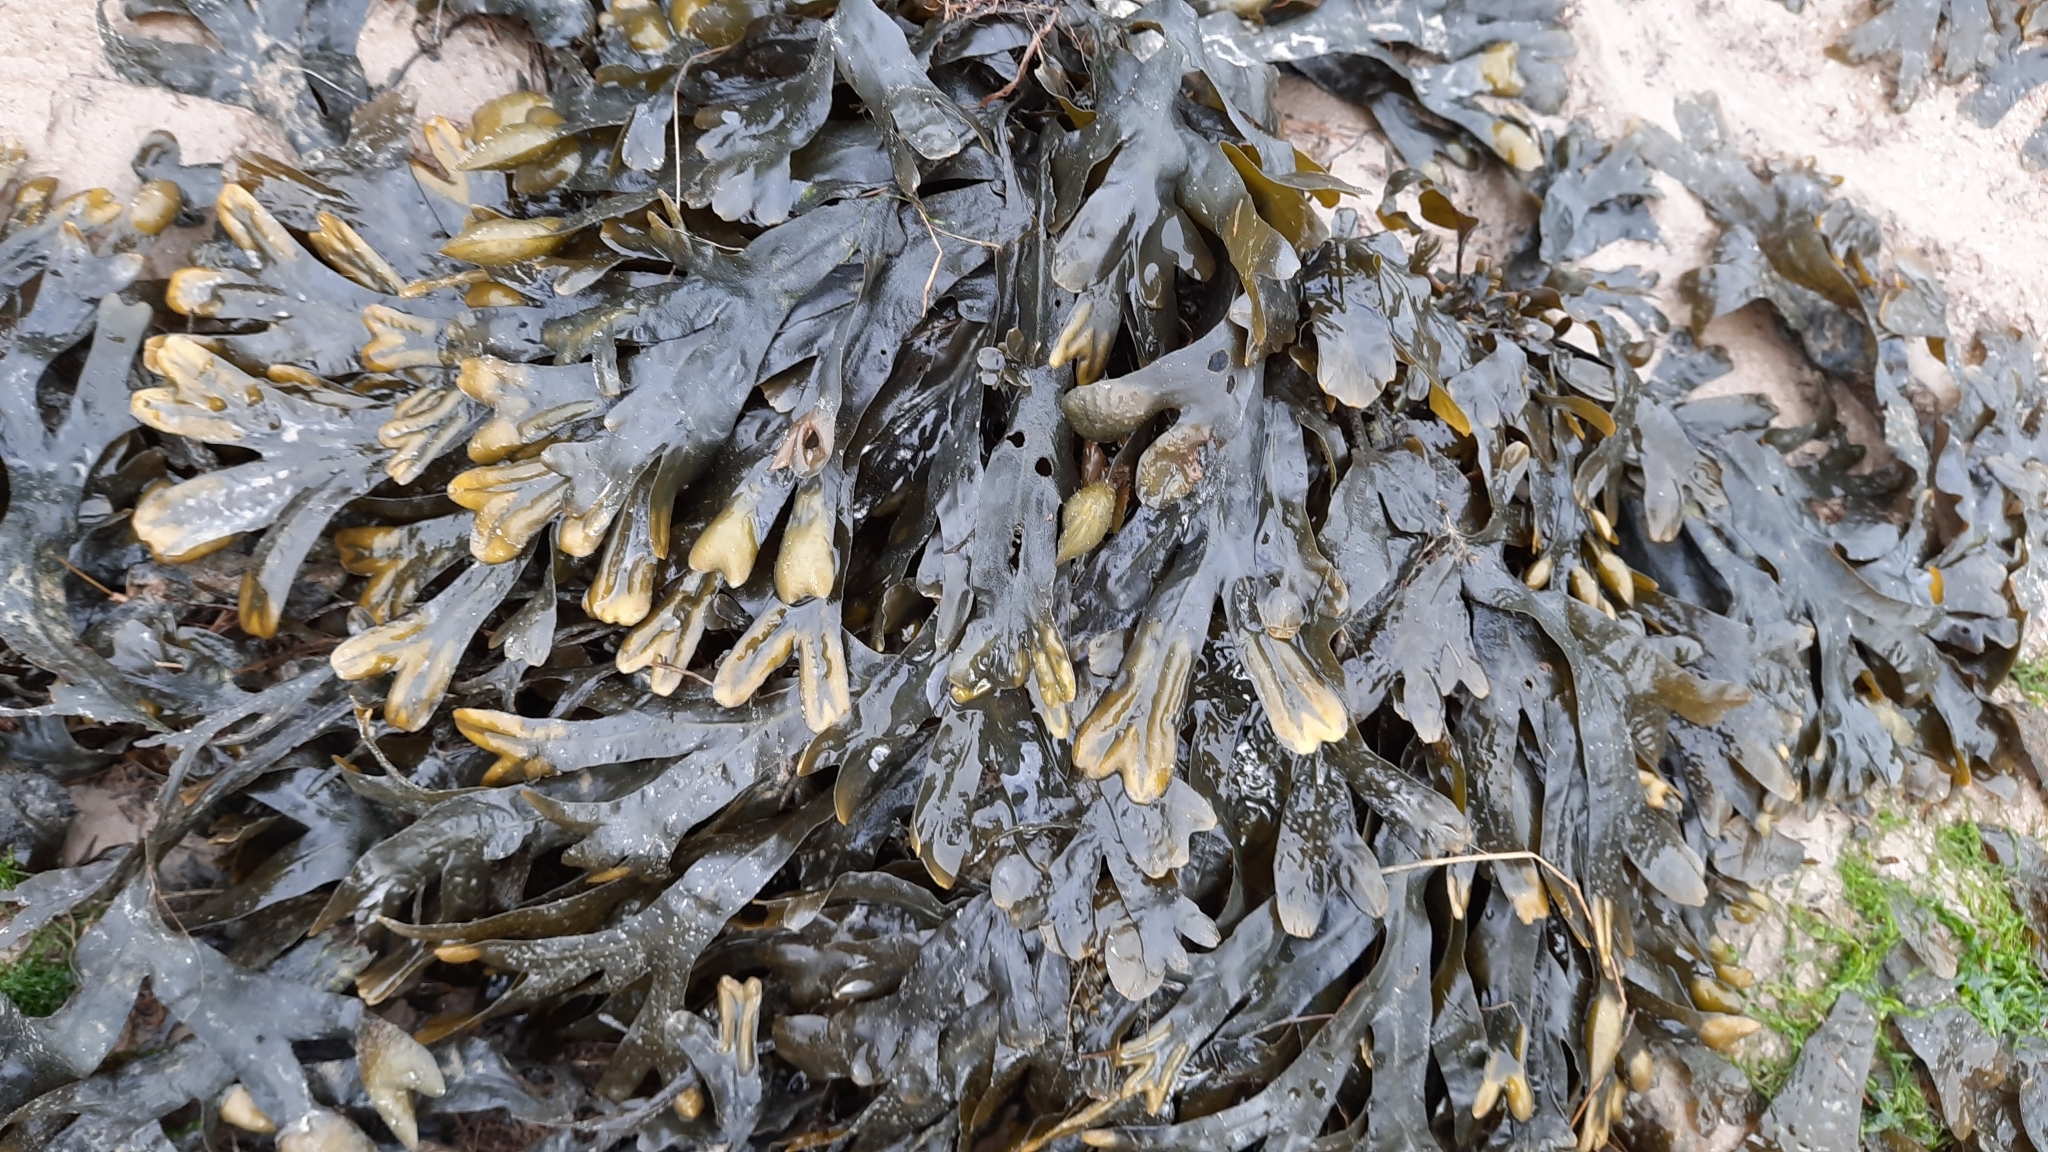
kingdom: Chromista
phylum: Ochrophyta
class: Phaeophyceae
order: Fucales
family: Fucaceae
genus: Fucus
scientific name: Fucus spiralis
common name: Spiral wrack
